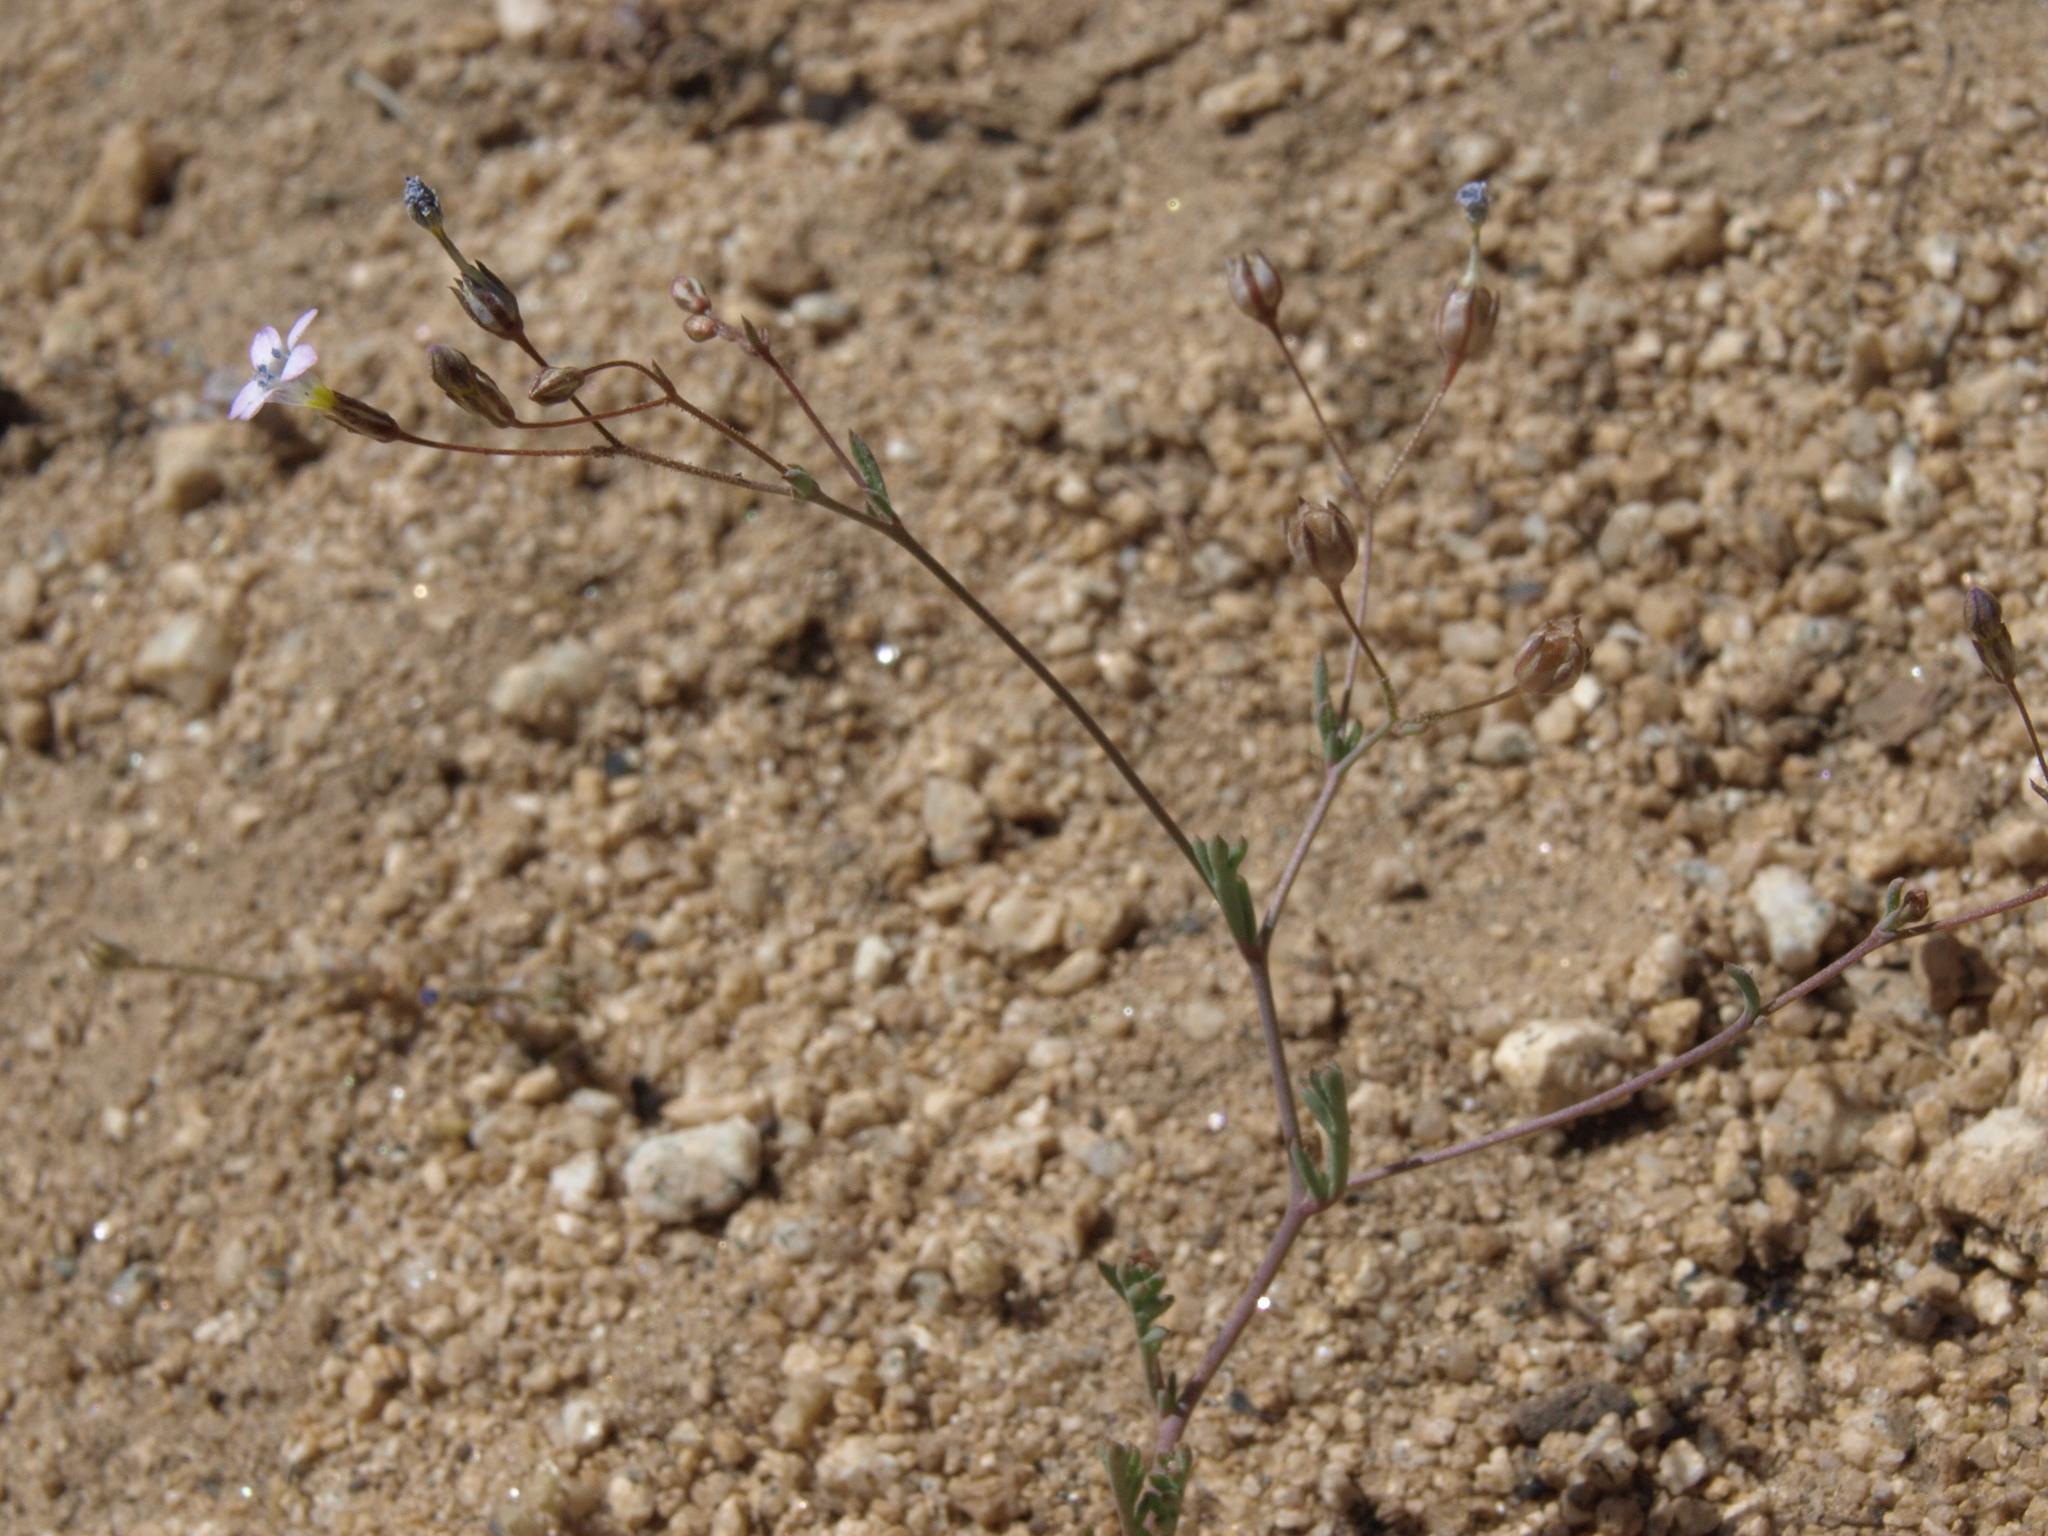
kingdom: Plantae
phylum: Tracheophyta
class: Magnoliopsida
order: Ericales
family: Polemoniaceae
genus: Gilia
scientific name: Gilia ochroleuca
